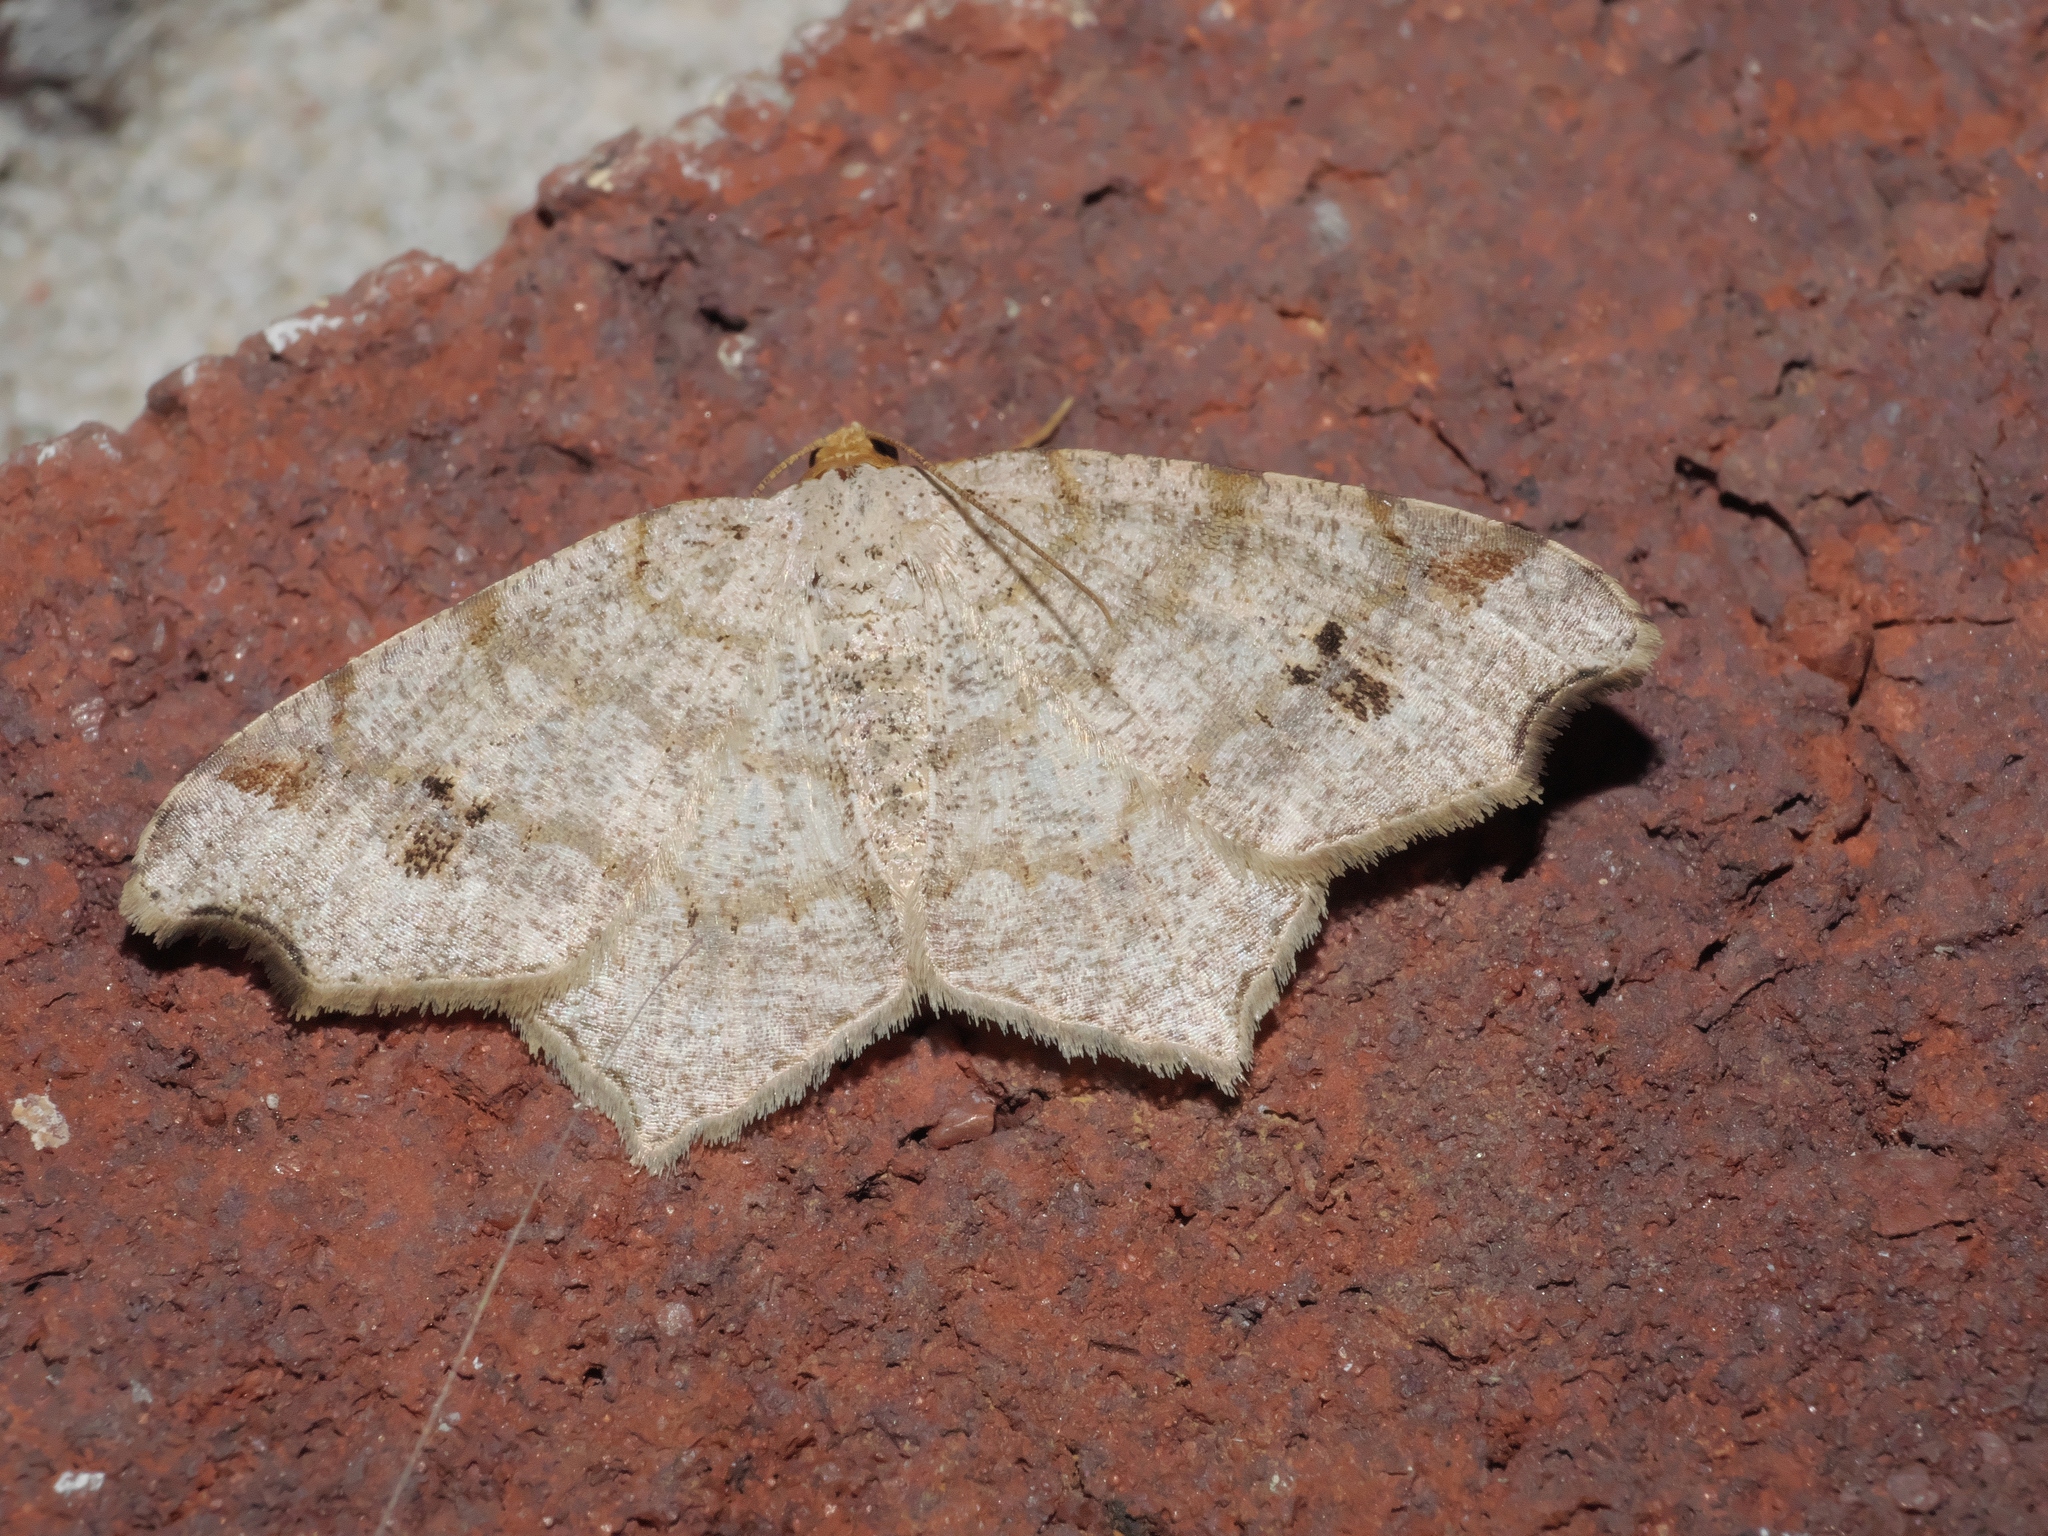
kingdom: Animalia
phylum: Arthropoda
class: Insecta
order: Lepidoptera
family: Geometridae
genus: Macaria
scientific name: Macaria aemulataria
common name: Common angle
